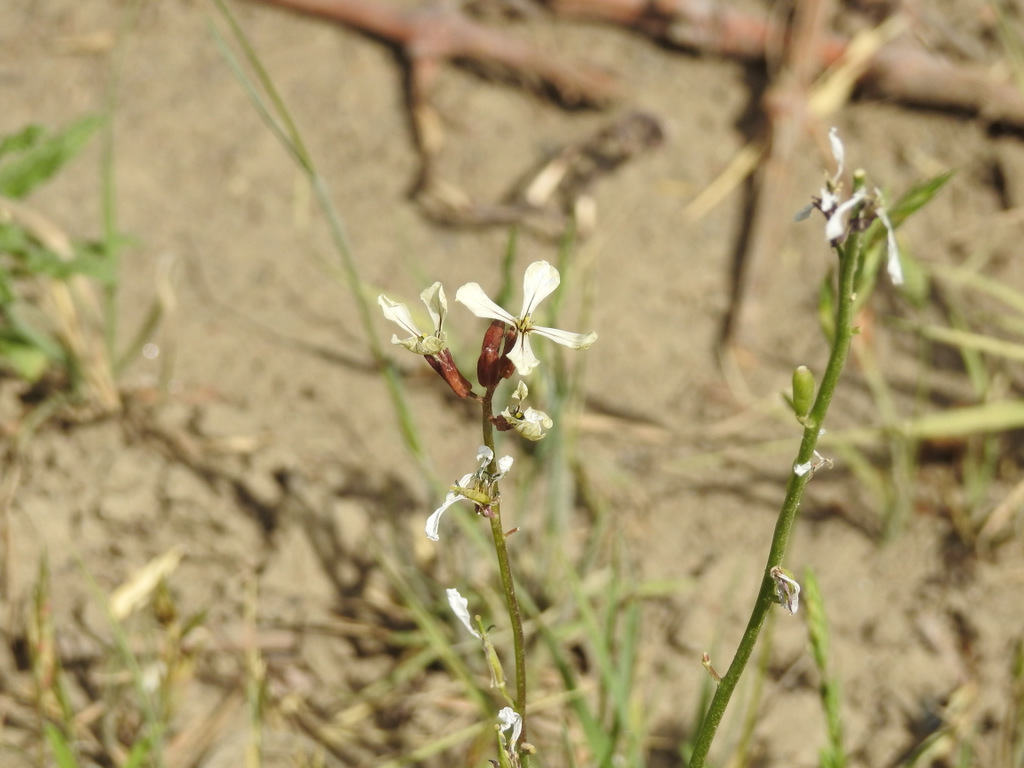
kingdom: Plantae
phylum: Tracheophyta
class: Magnoliopsida
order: Brassicales
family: Brassicaceae
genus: Eruca
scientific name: Eruca vesicaria
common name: Garden rocket
